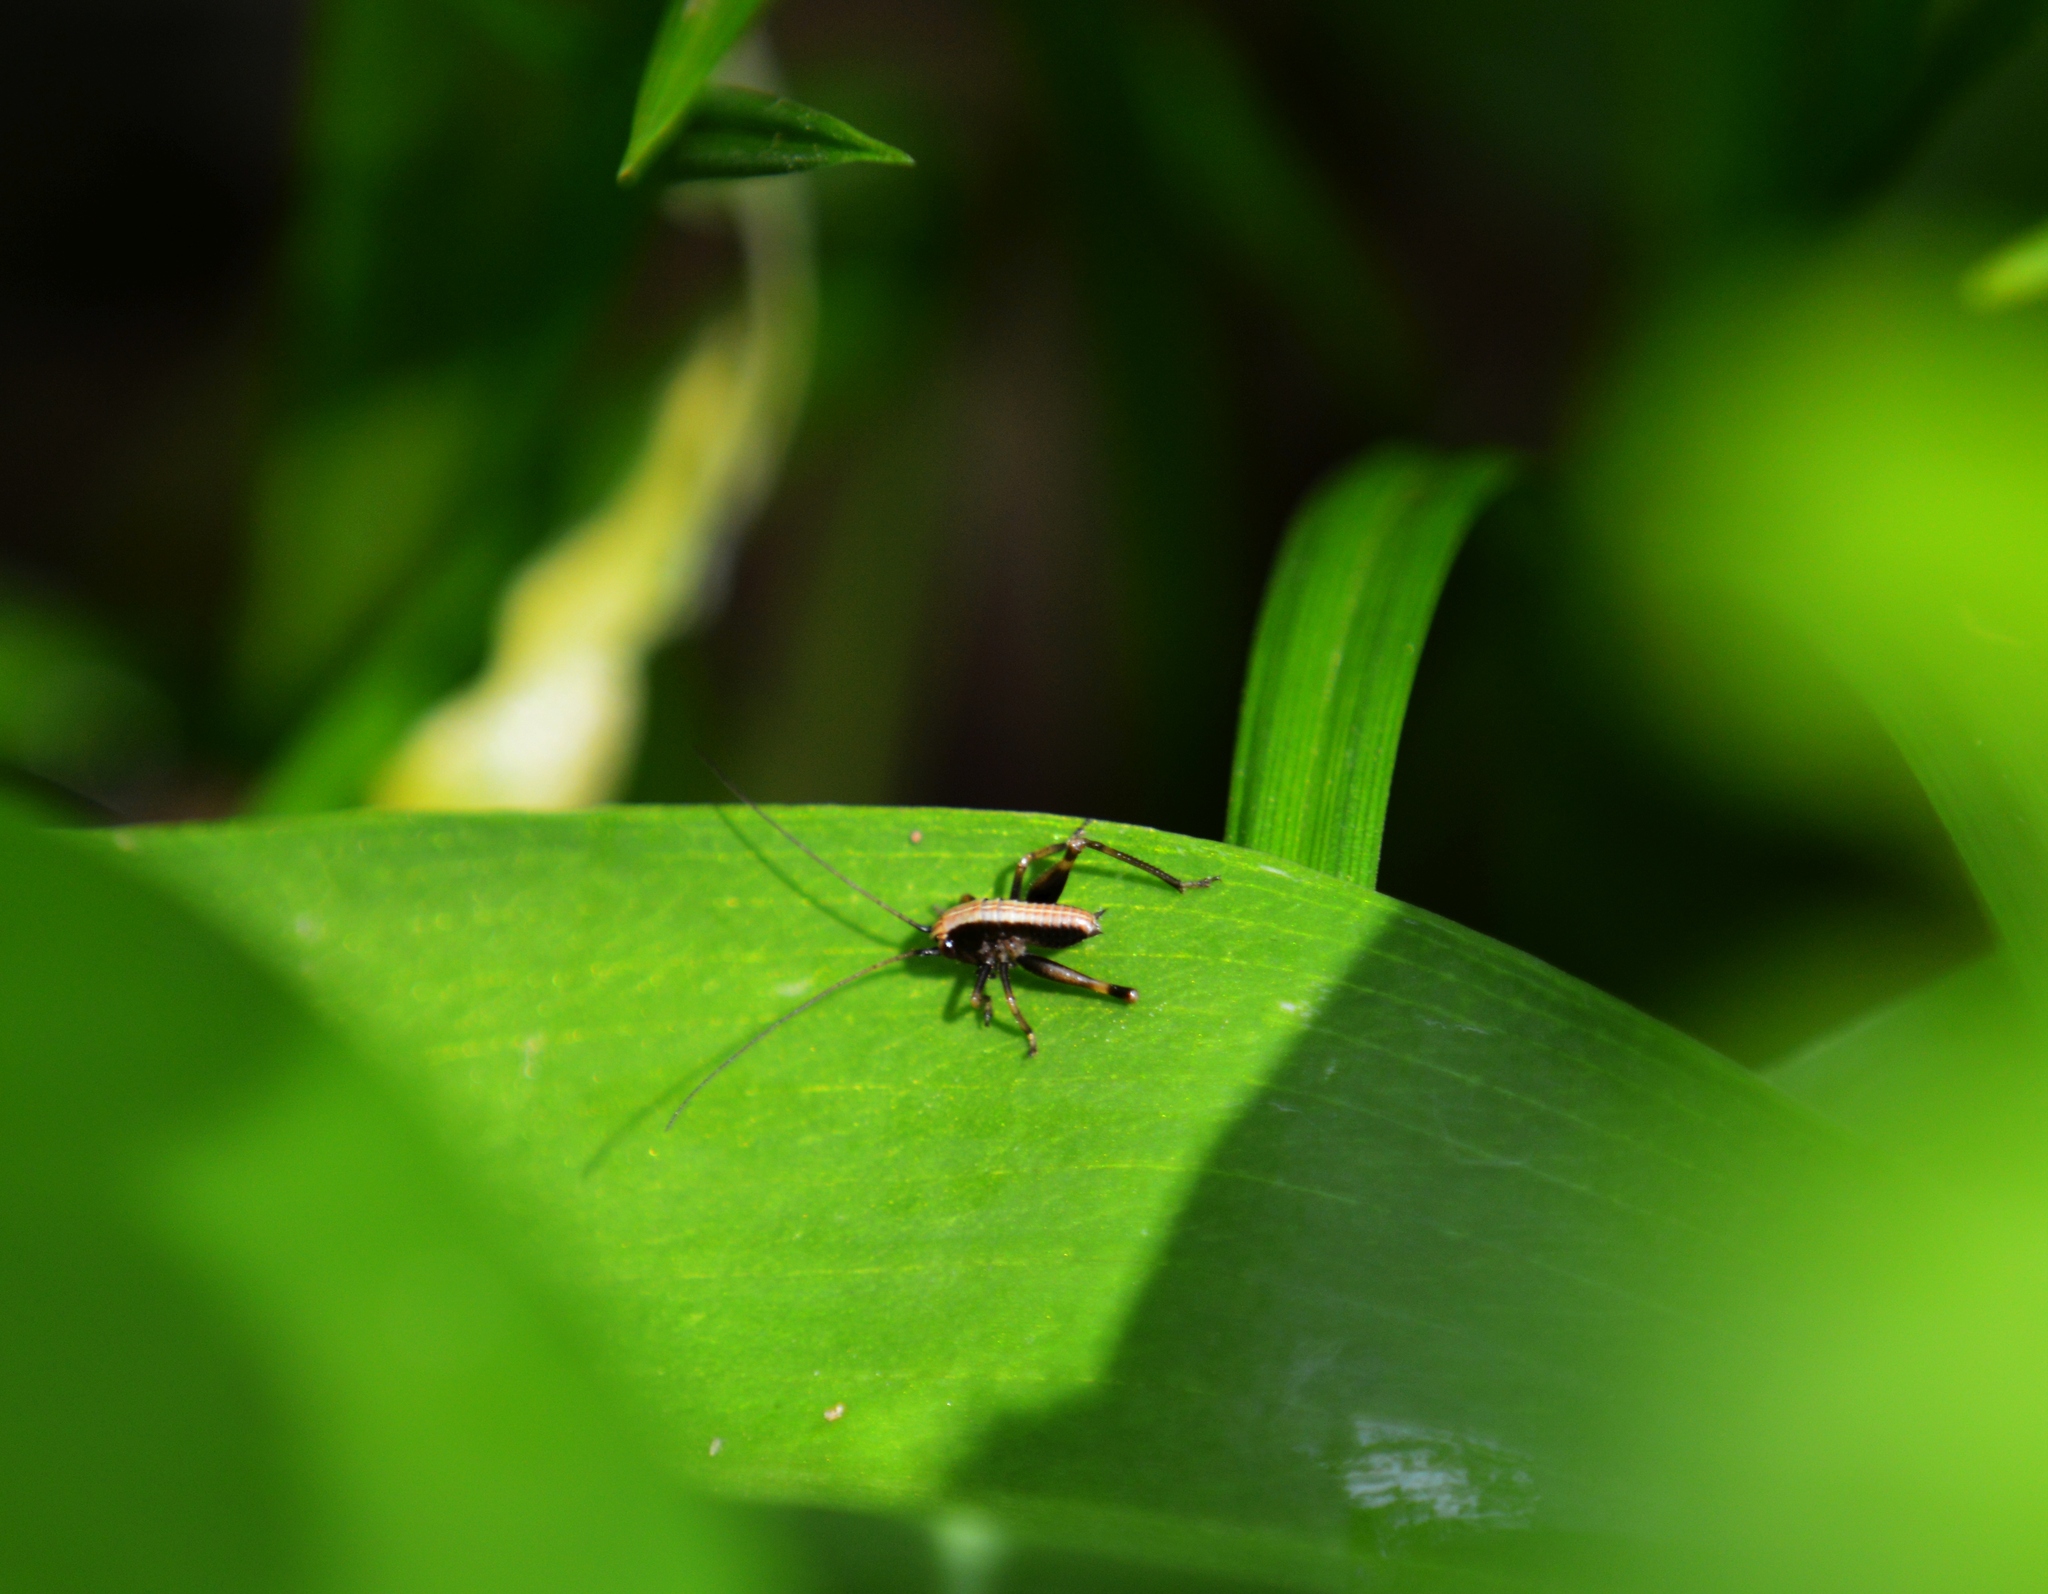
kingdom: Animalia
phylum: Arthropoda
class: Insecta
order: Orthoptera
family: Tettigoniidae
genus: Pholidoptera
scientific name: Pholidoptera griseoaptera
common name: Dark bush-cricket
